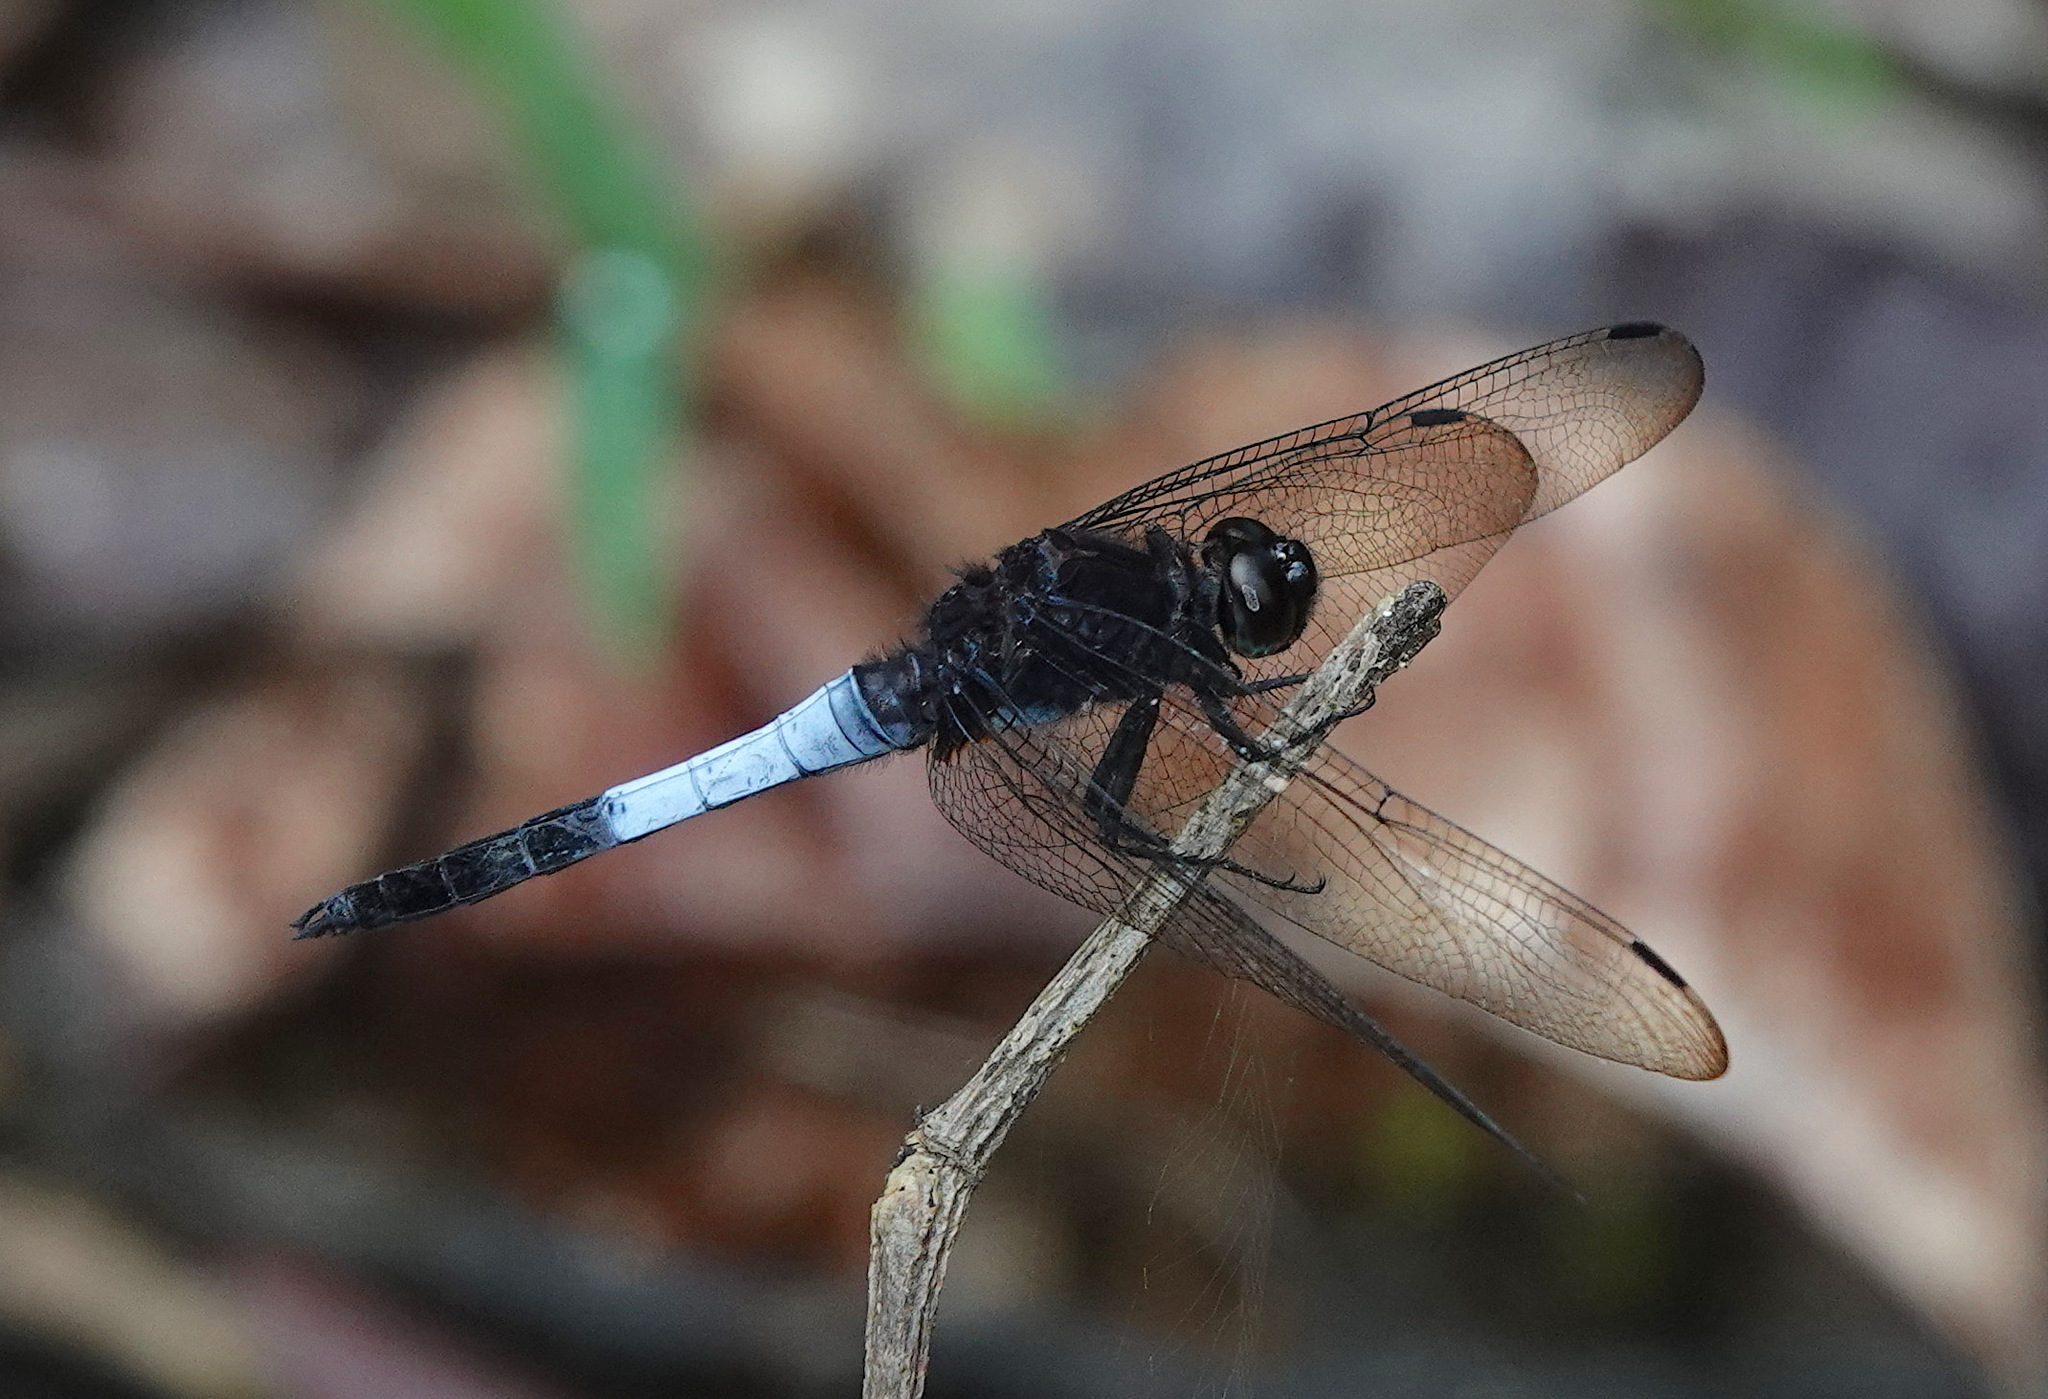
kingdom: Animalia
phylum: Arthropoda
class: Insecta
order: Odonata
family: Libellulidae
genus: Orthetrum
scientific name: Orthetrum triangulare
